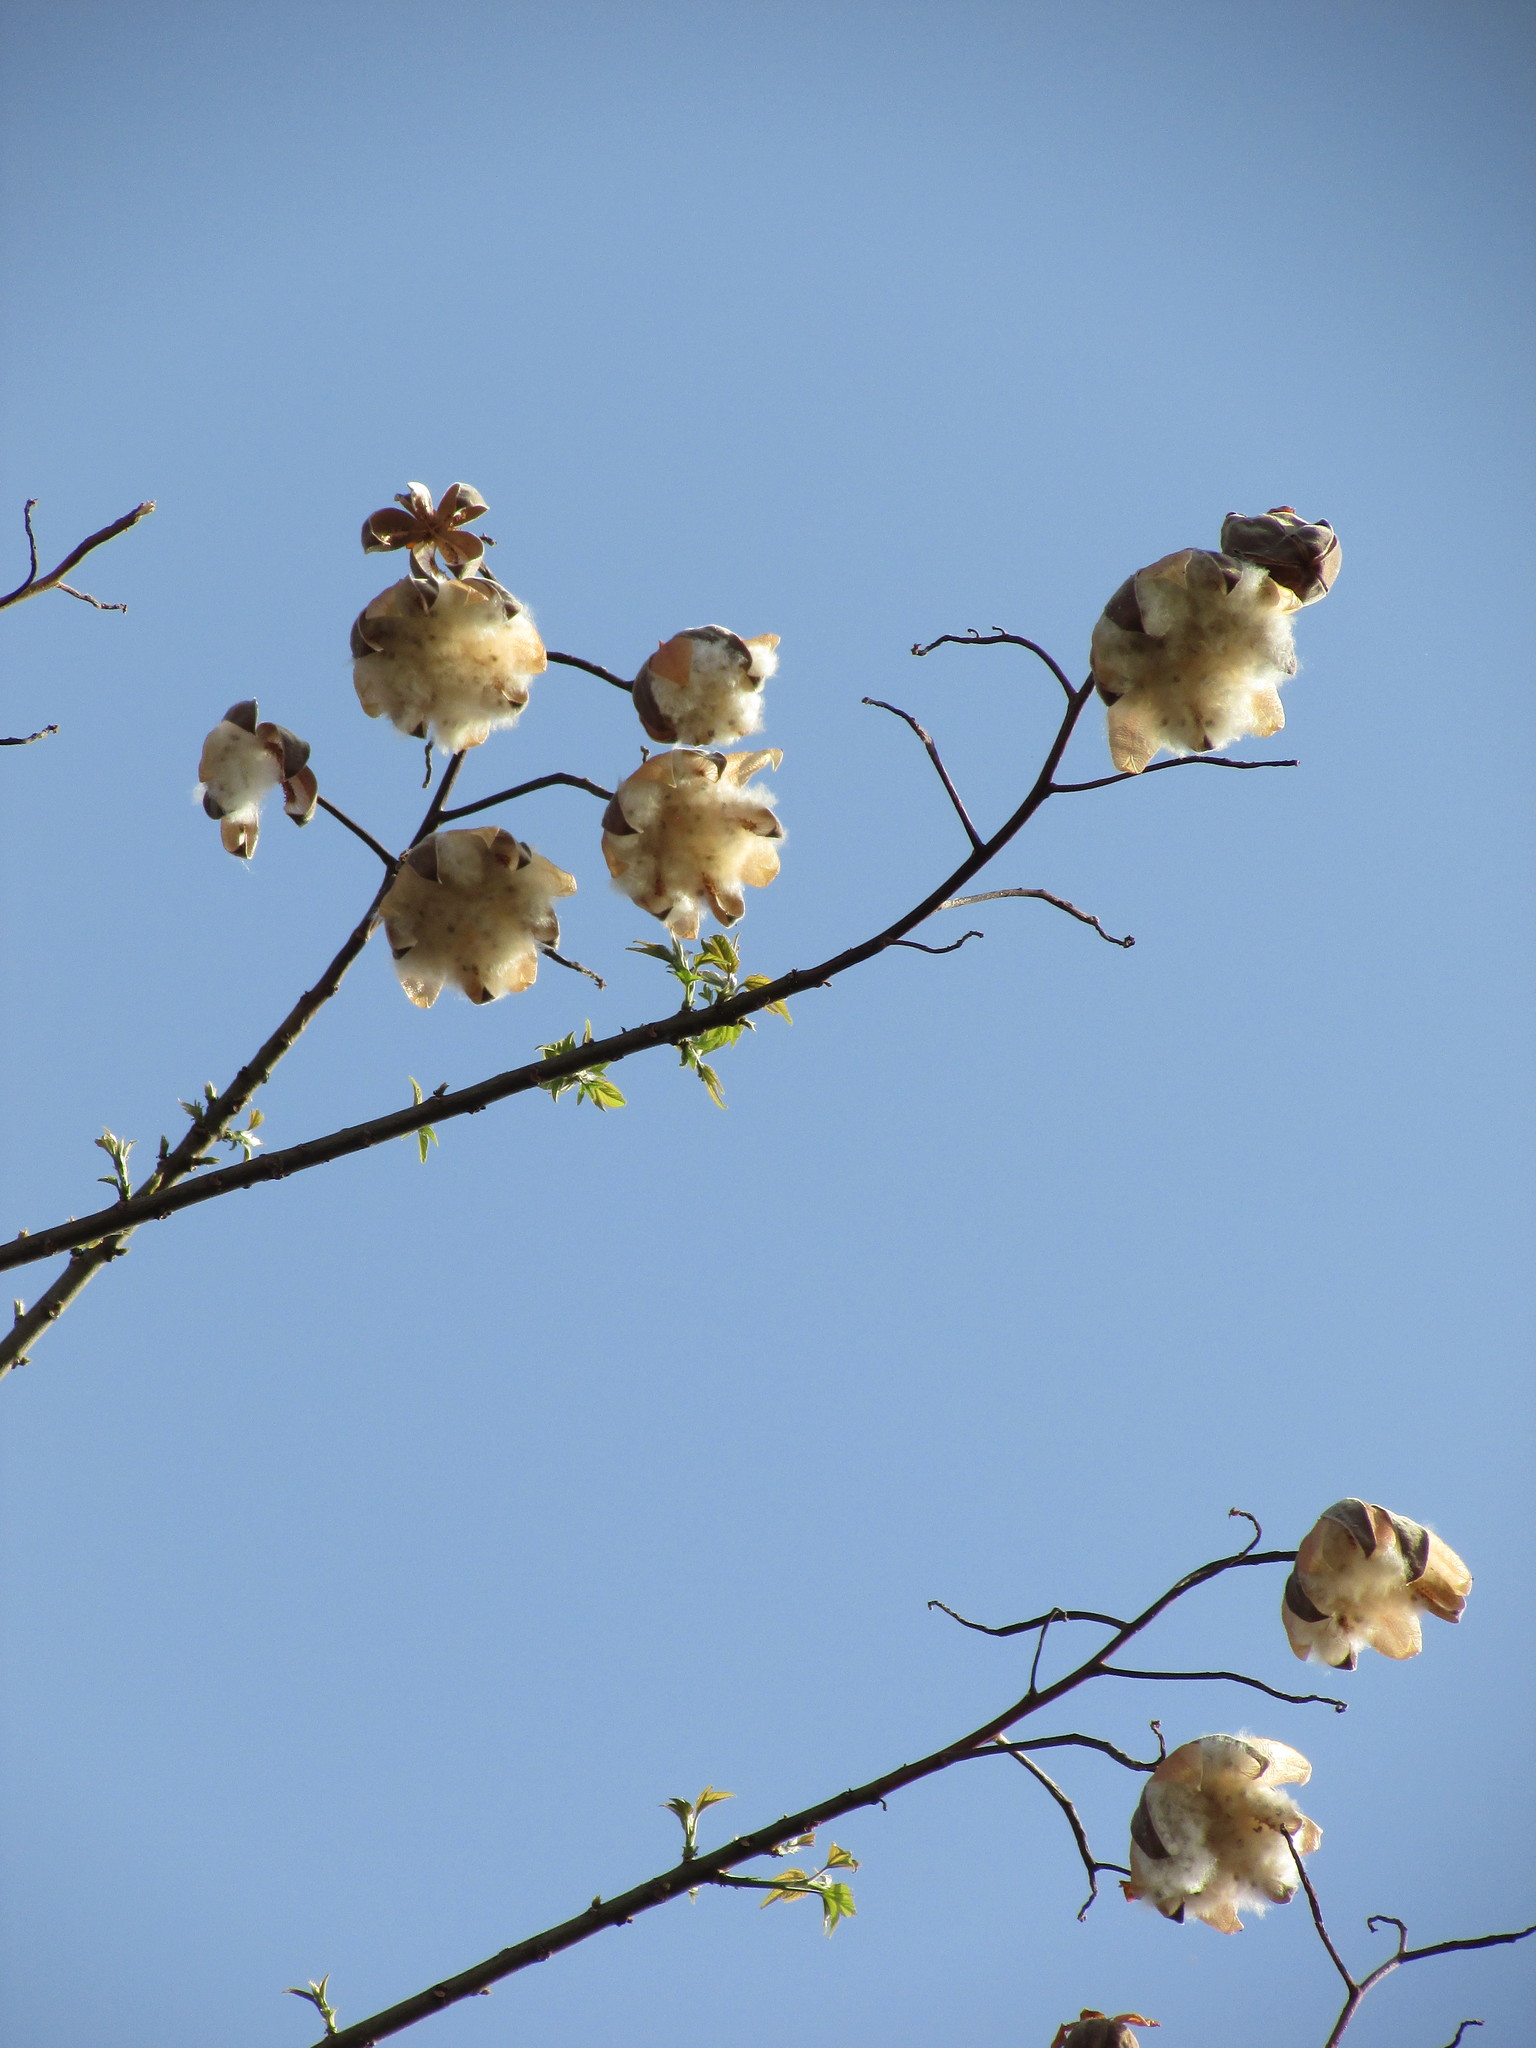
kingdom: Plantae
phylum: Tracheophyta
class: Magnoliopsida
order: Malvales
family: Cochlospermaceae
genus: Cochlospermum
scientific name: Cochlospermum vitifolium
